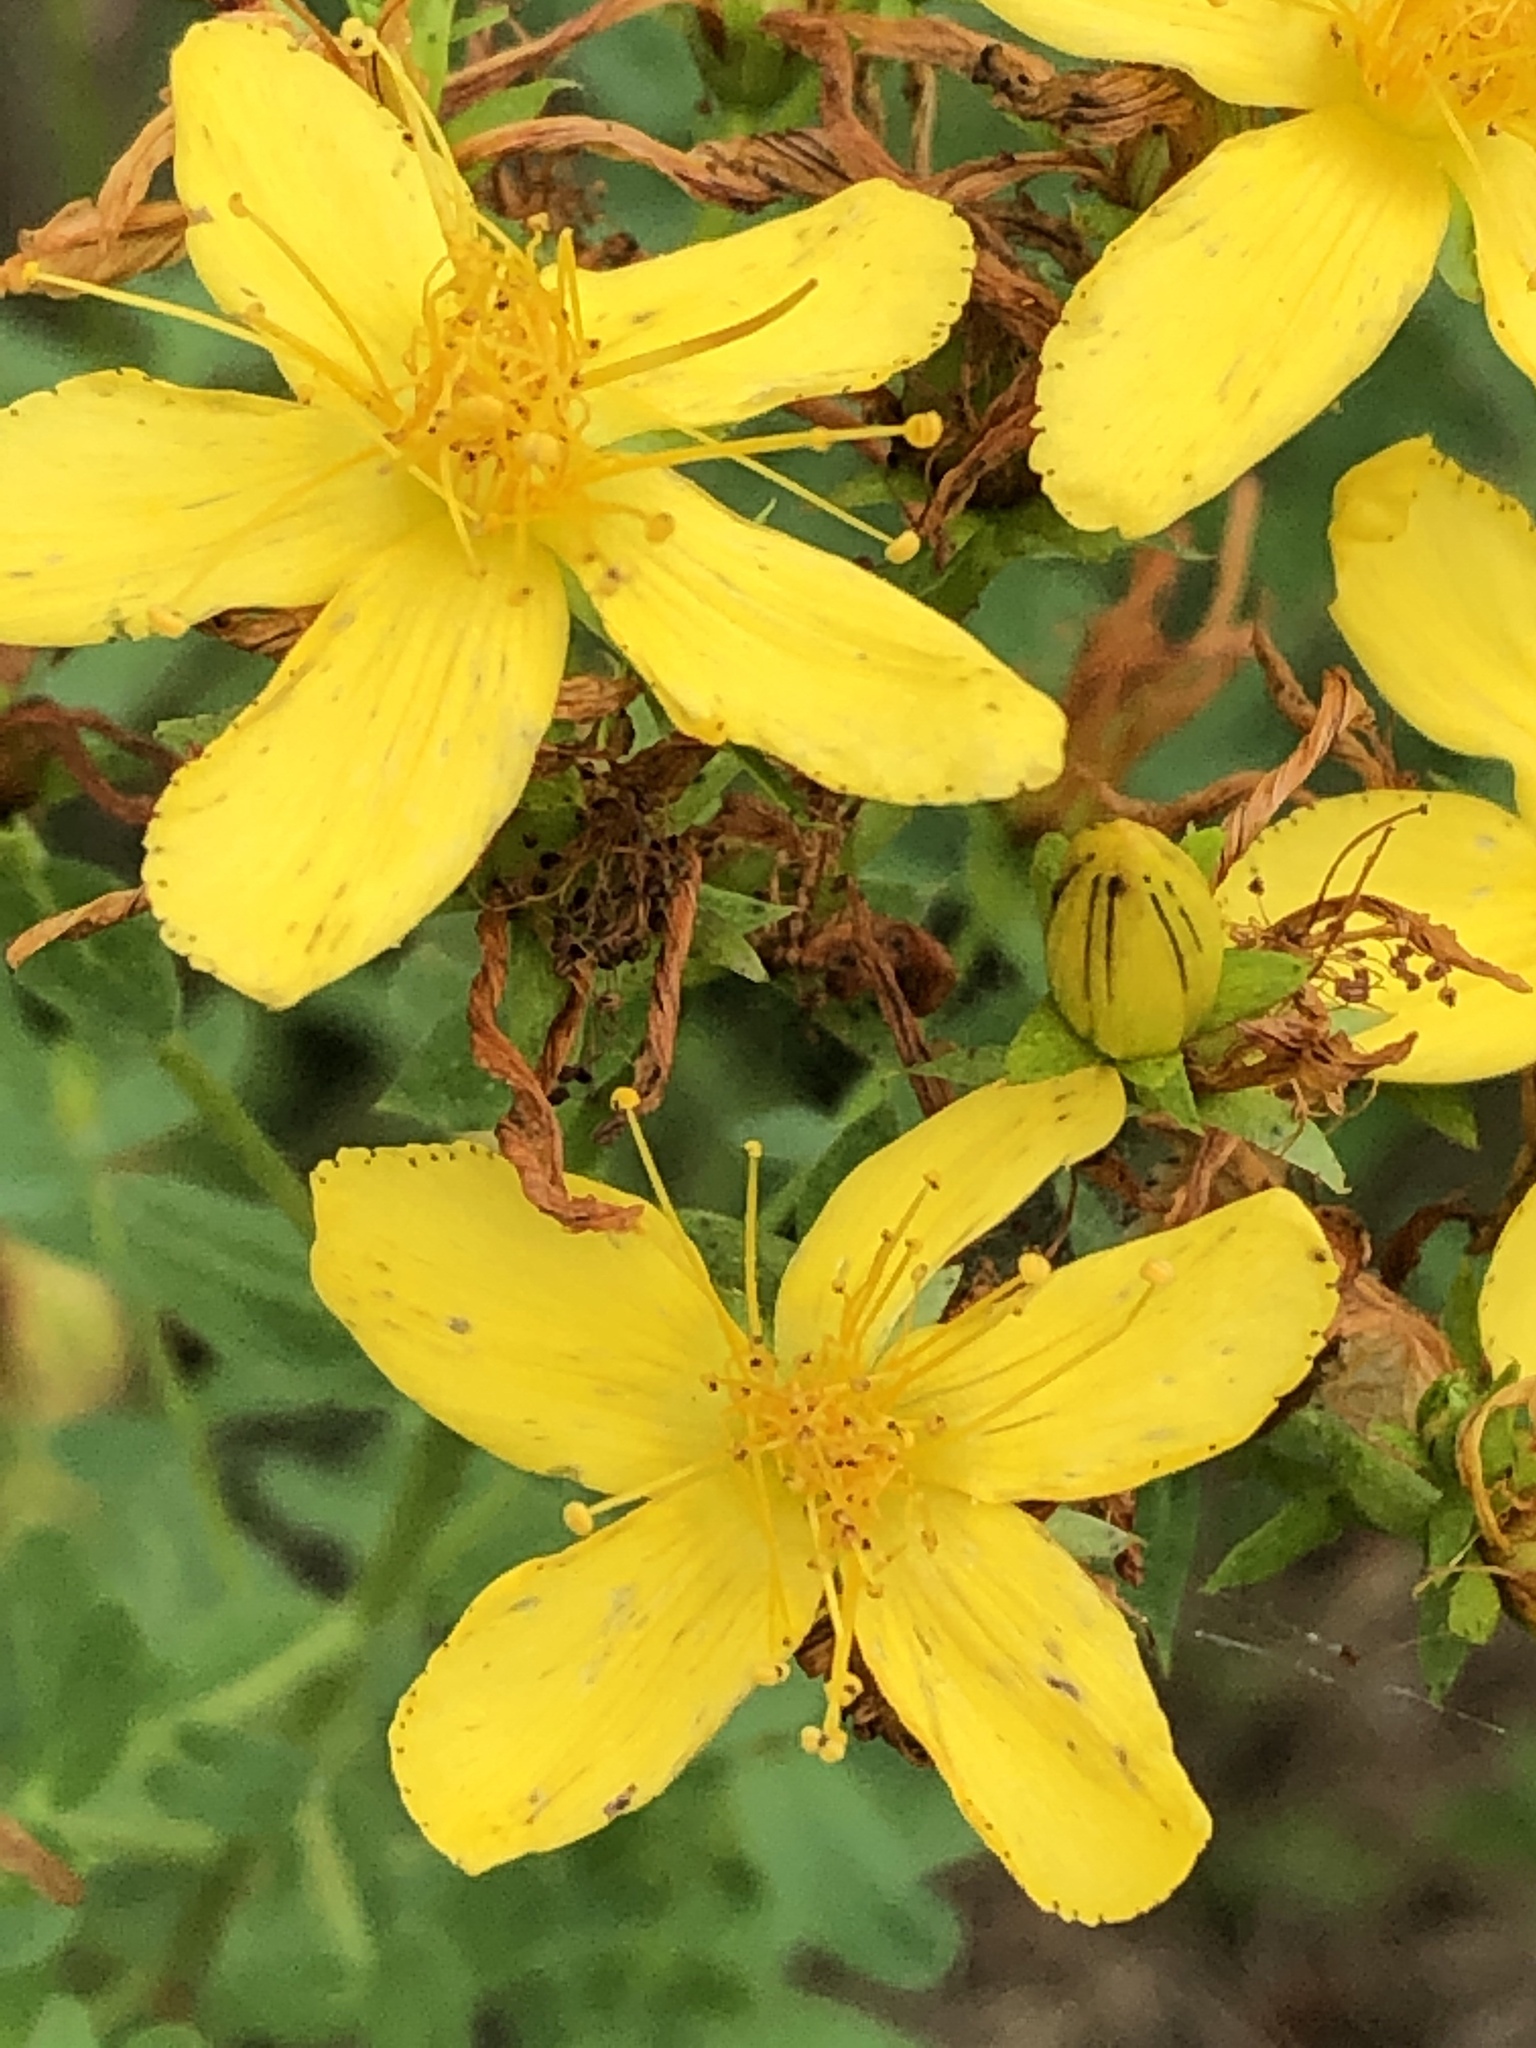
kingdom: Plantae
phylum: Tracheophyta
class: Magnoliopsida
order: Malpighiales
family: Hypericaceae
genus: Hypericum
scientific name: Hypericum perforatum
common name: Common st. johnswort
